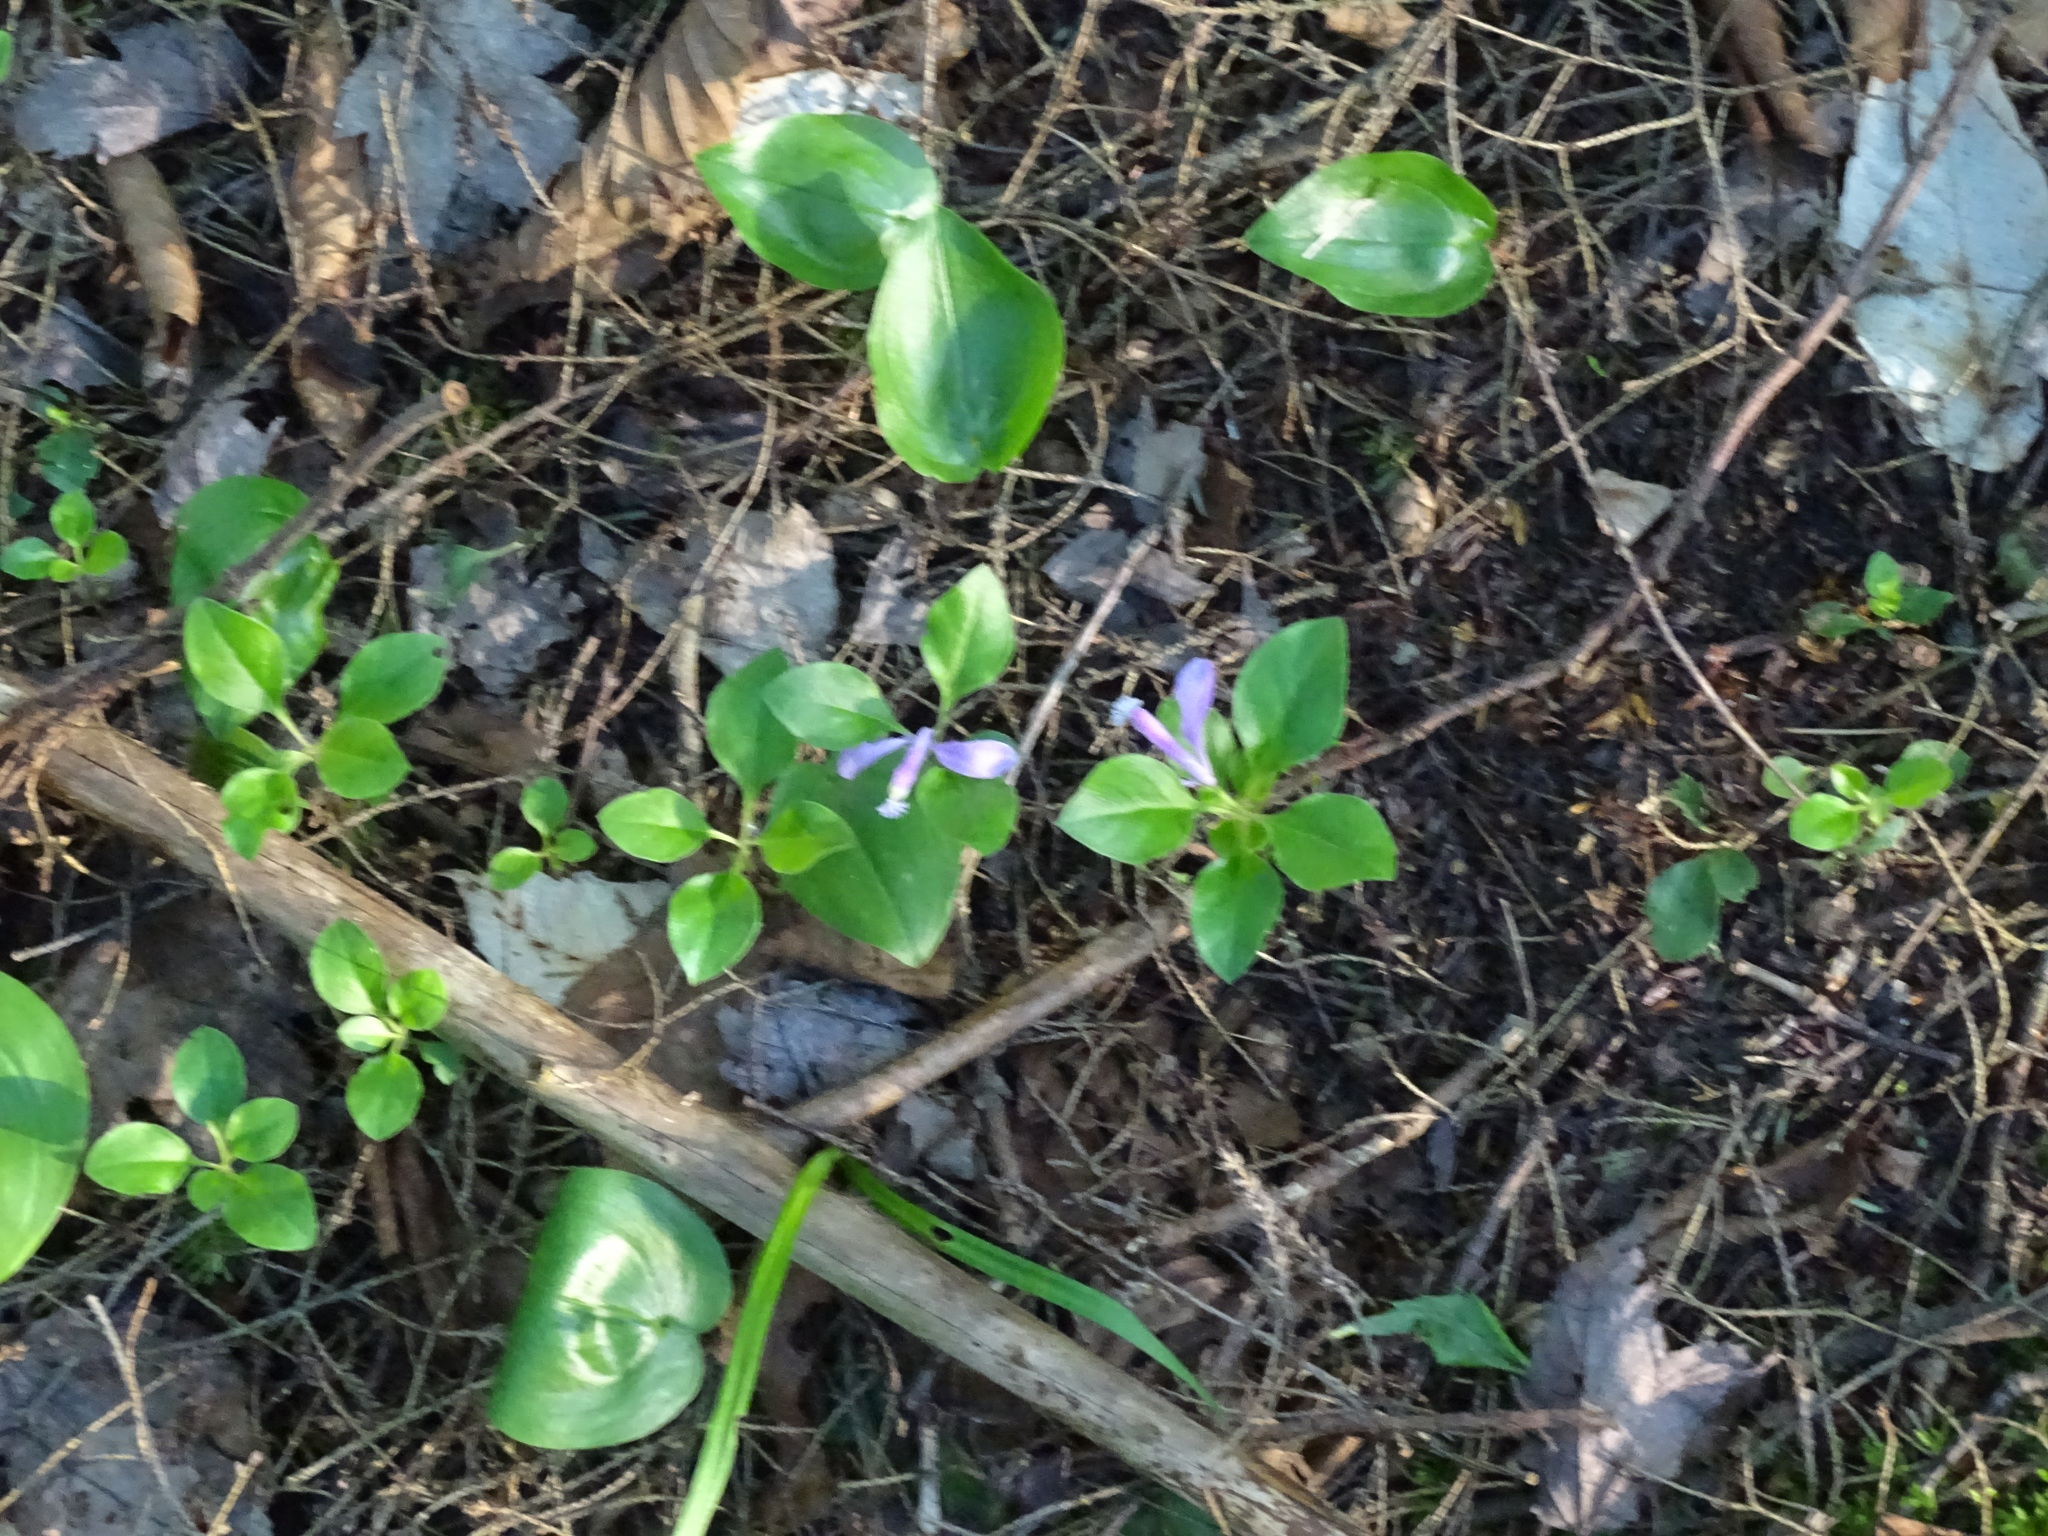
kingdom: Plantae
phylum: Tracheophyta
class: Magnoliopsida
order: Fabales
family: Polygalaceae
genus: Polygaloides
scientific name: Polygaloides paucifolia
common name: Bird-on-the-wing
